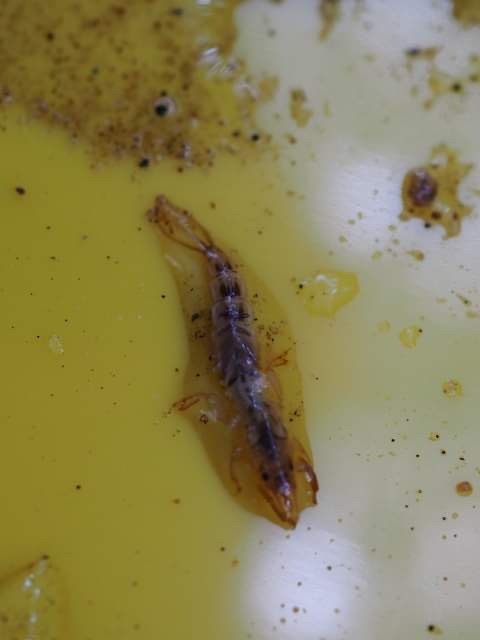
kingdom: Animalia
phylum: Arthropoda
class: Insecta
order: Ephemeroptera
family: Ephemeridae
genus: Ephemera
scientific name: Ephemera danica
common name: Green dun
